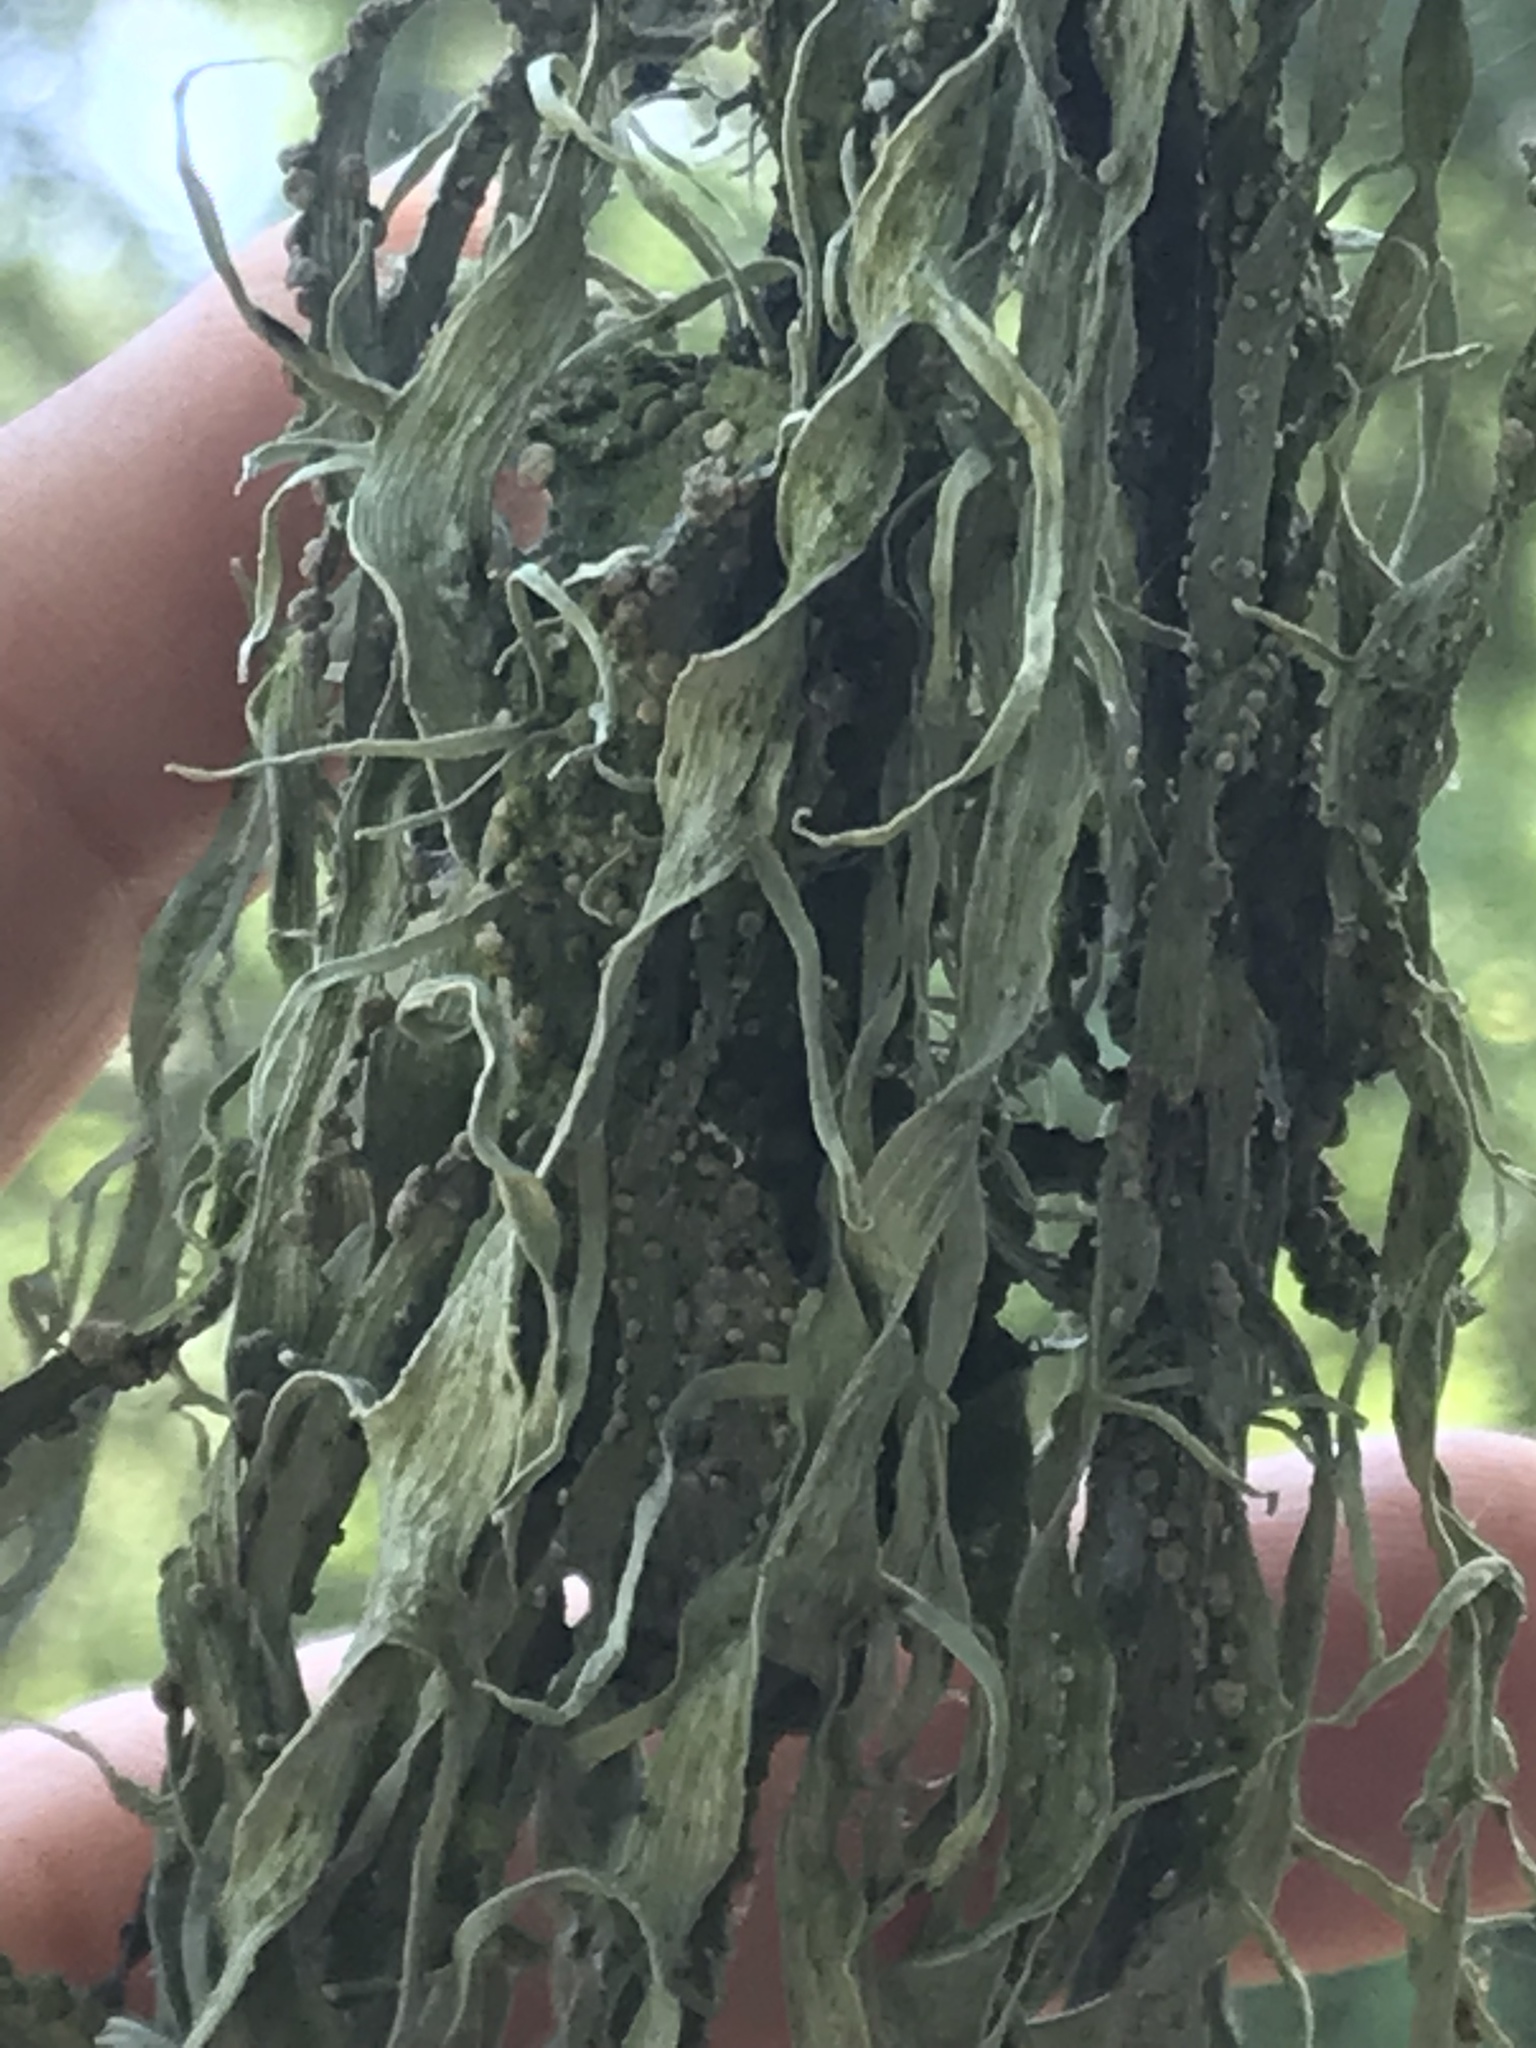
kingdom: Fungi
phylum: Ascomycota
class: Lecanoromycetes
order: Lecanorales
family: Ramalinaceae
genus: Ramalina
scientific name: Ramalina
